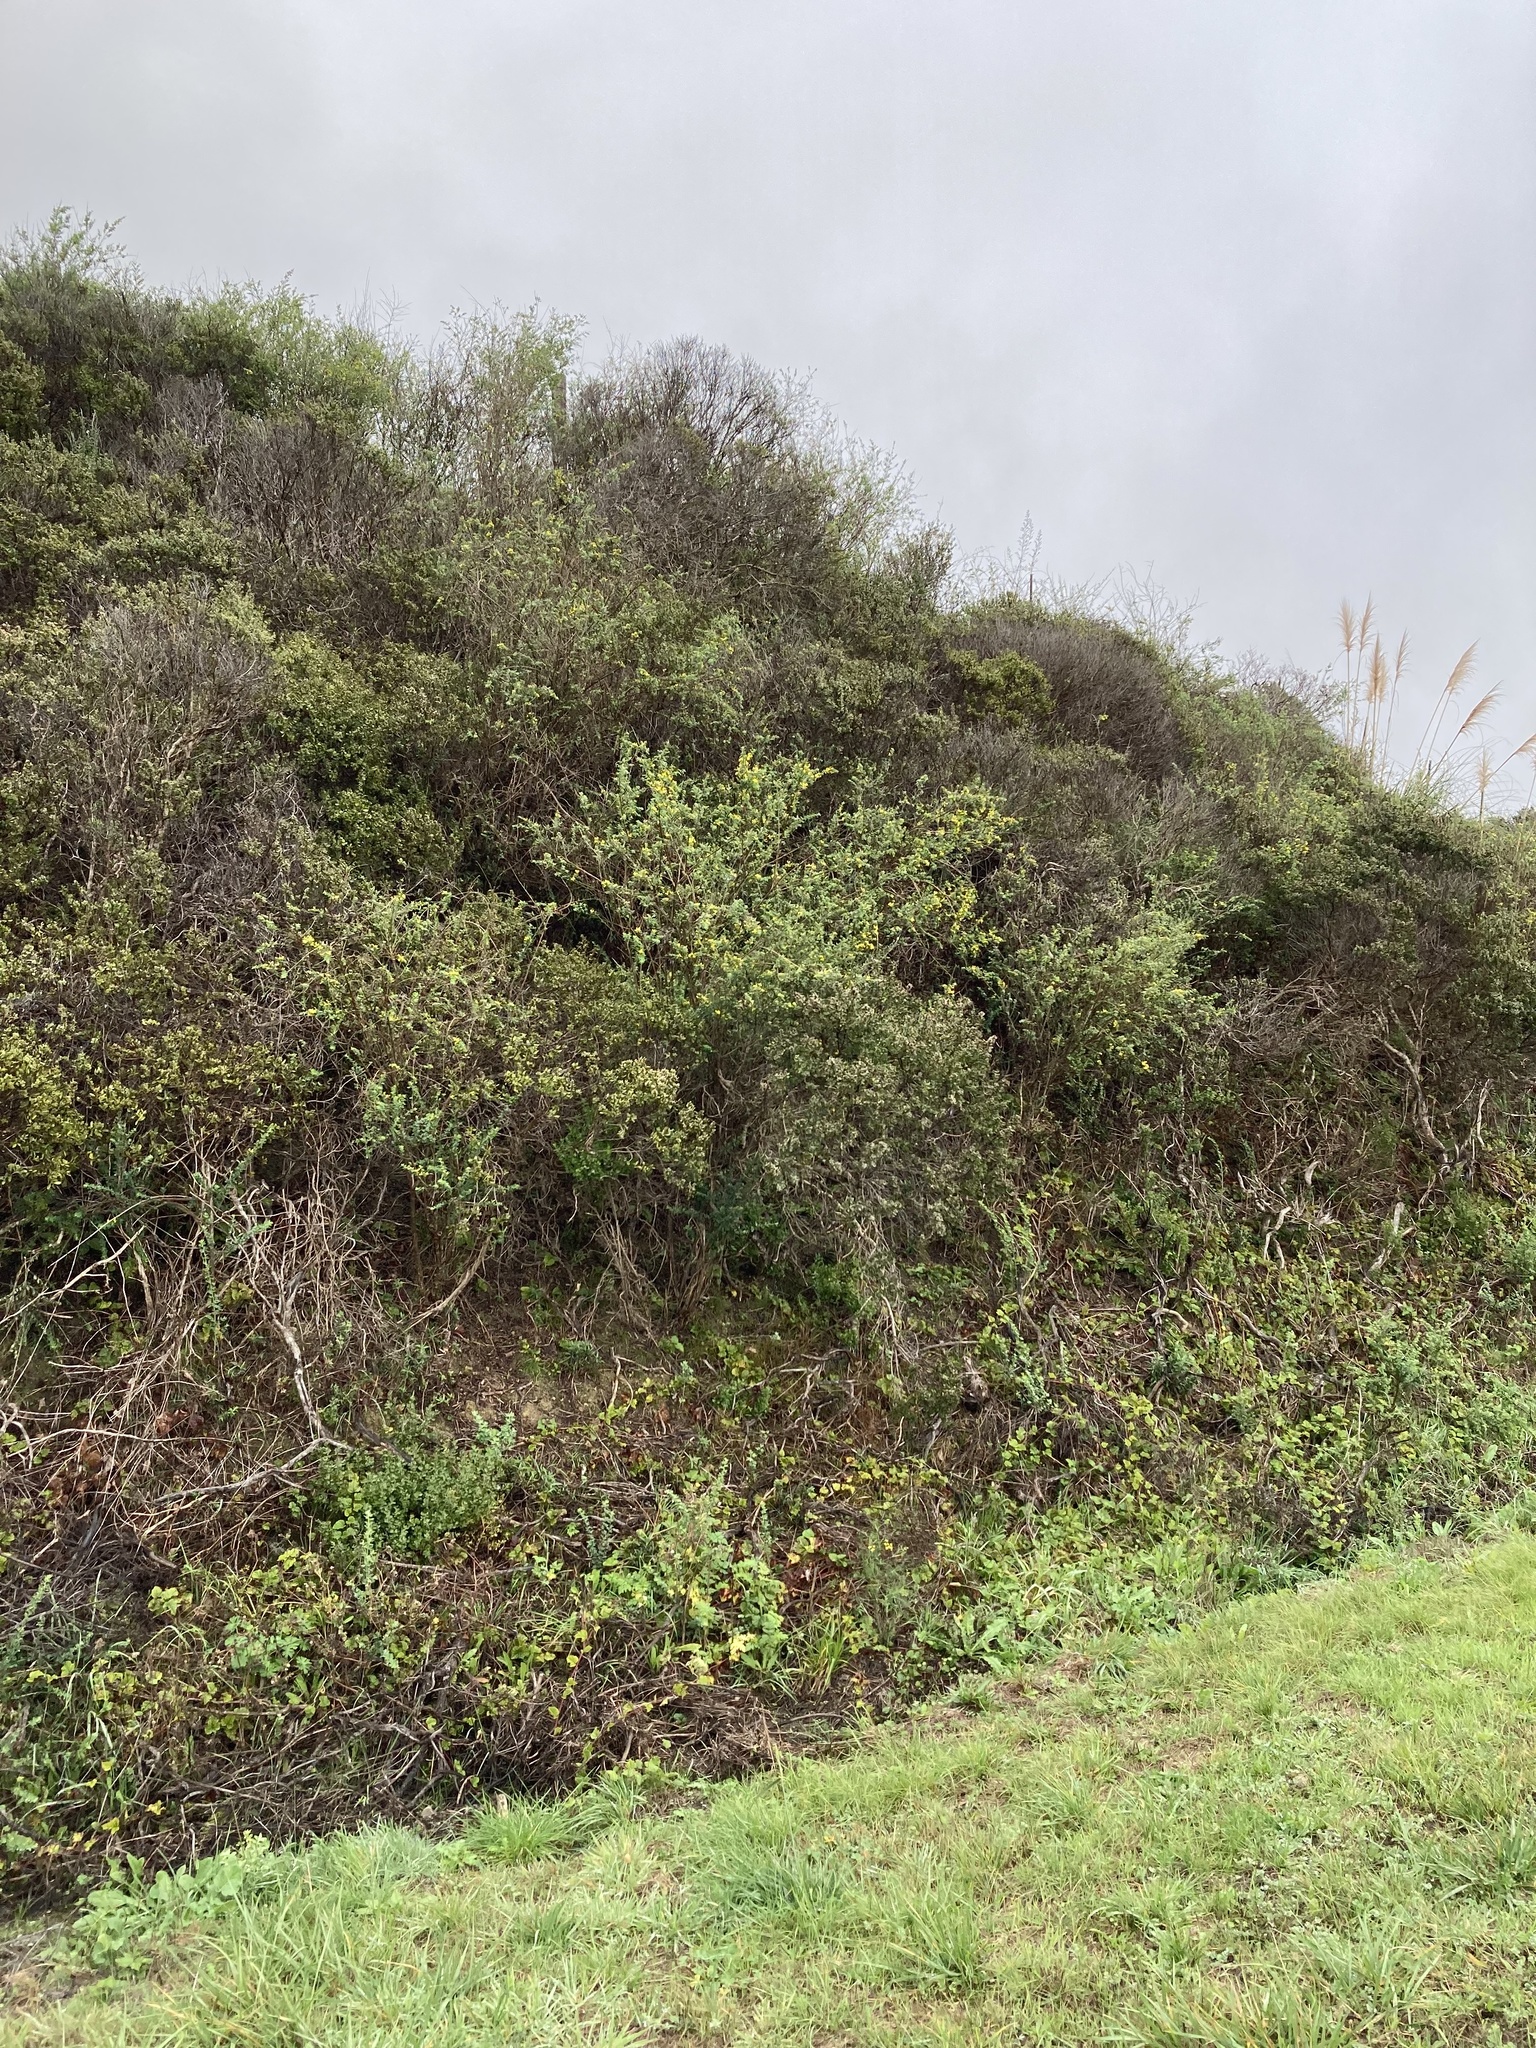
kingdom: Plantae
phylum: Tracheophyta
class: Magnoliopsida
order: Fabales
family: Fabaceae
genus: Genista
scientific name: Genista monspessulana
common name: Montpellier broom
